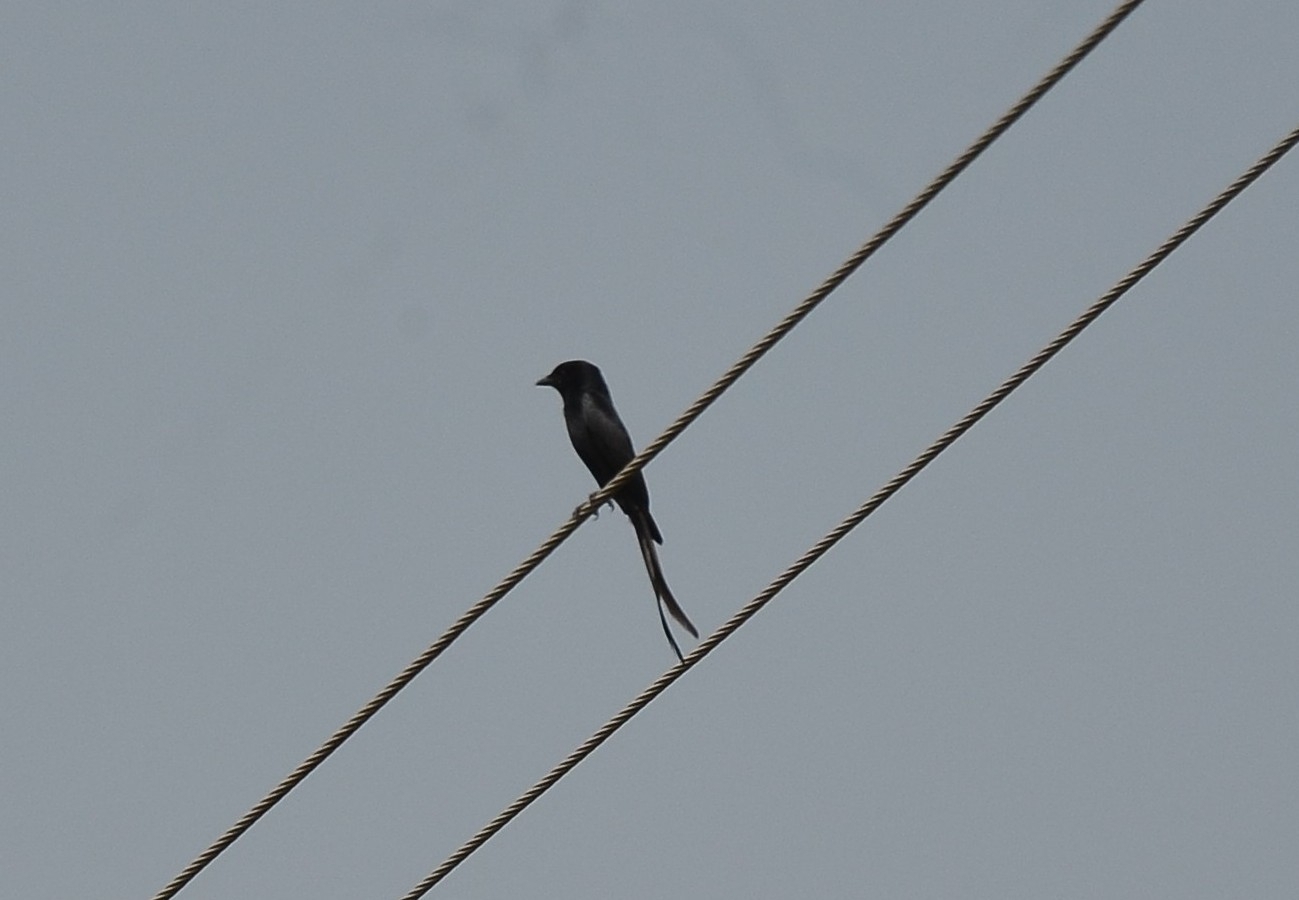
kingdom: Animalia
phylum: Chordata
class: Aves
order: Passeriformes
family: Dicruridae
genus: Dicrurus
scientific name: Dicrurus macrocercus
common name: Black drongo
